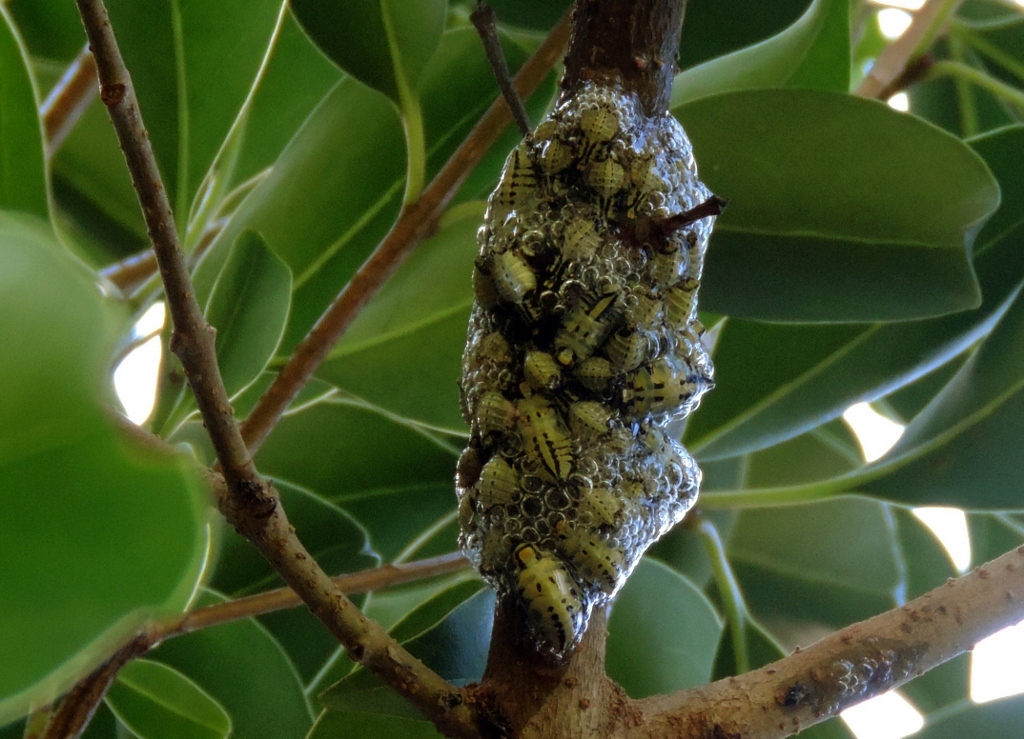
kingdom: Animalia
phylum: Arthropoda
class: Insecta
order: Hemiptera
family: Aphrophoridae
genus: Ptyelus
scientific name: Ptyelus flavescens
